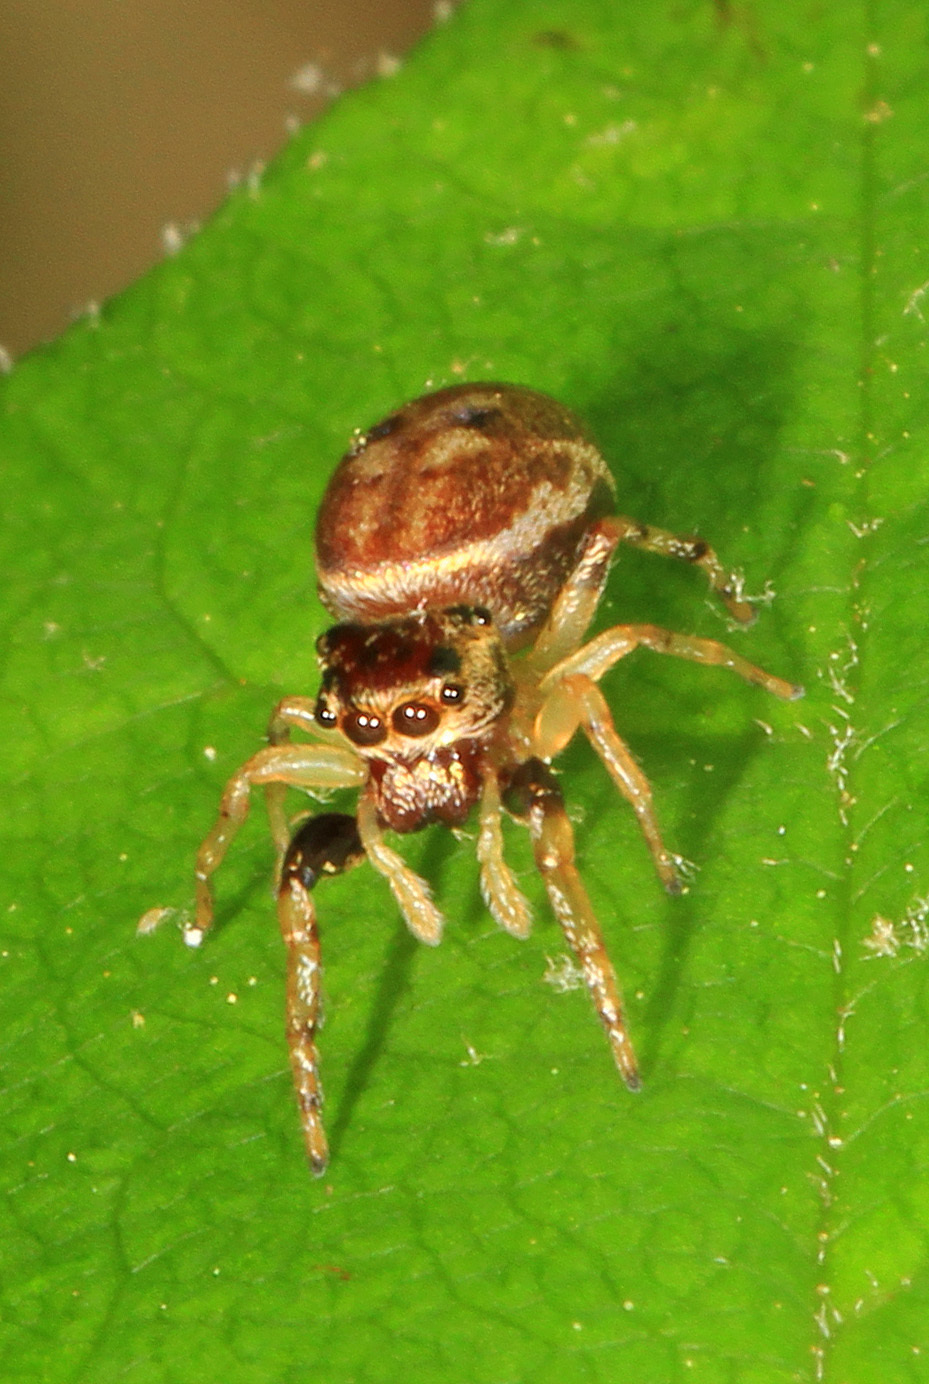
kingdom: Animalia
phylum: Arthropoda
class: Arachnida
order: Araneae
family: Salticidae
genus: Zygoballus
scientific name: Zygoballus rufipes
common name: Jumping spiders
